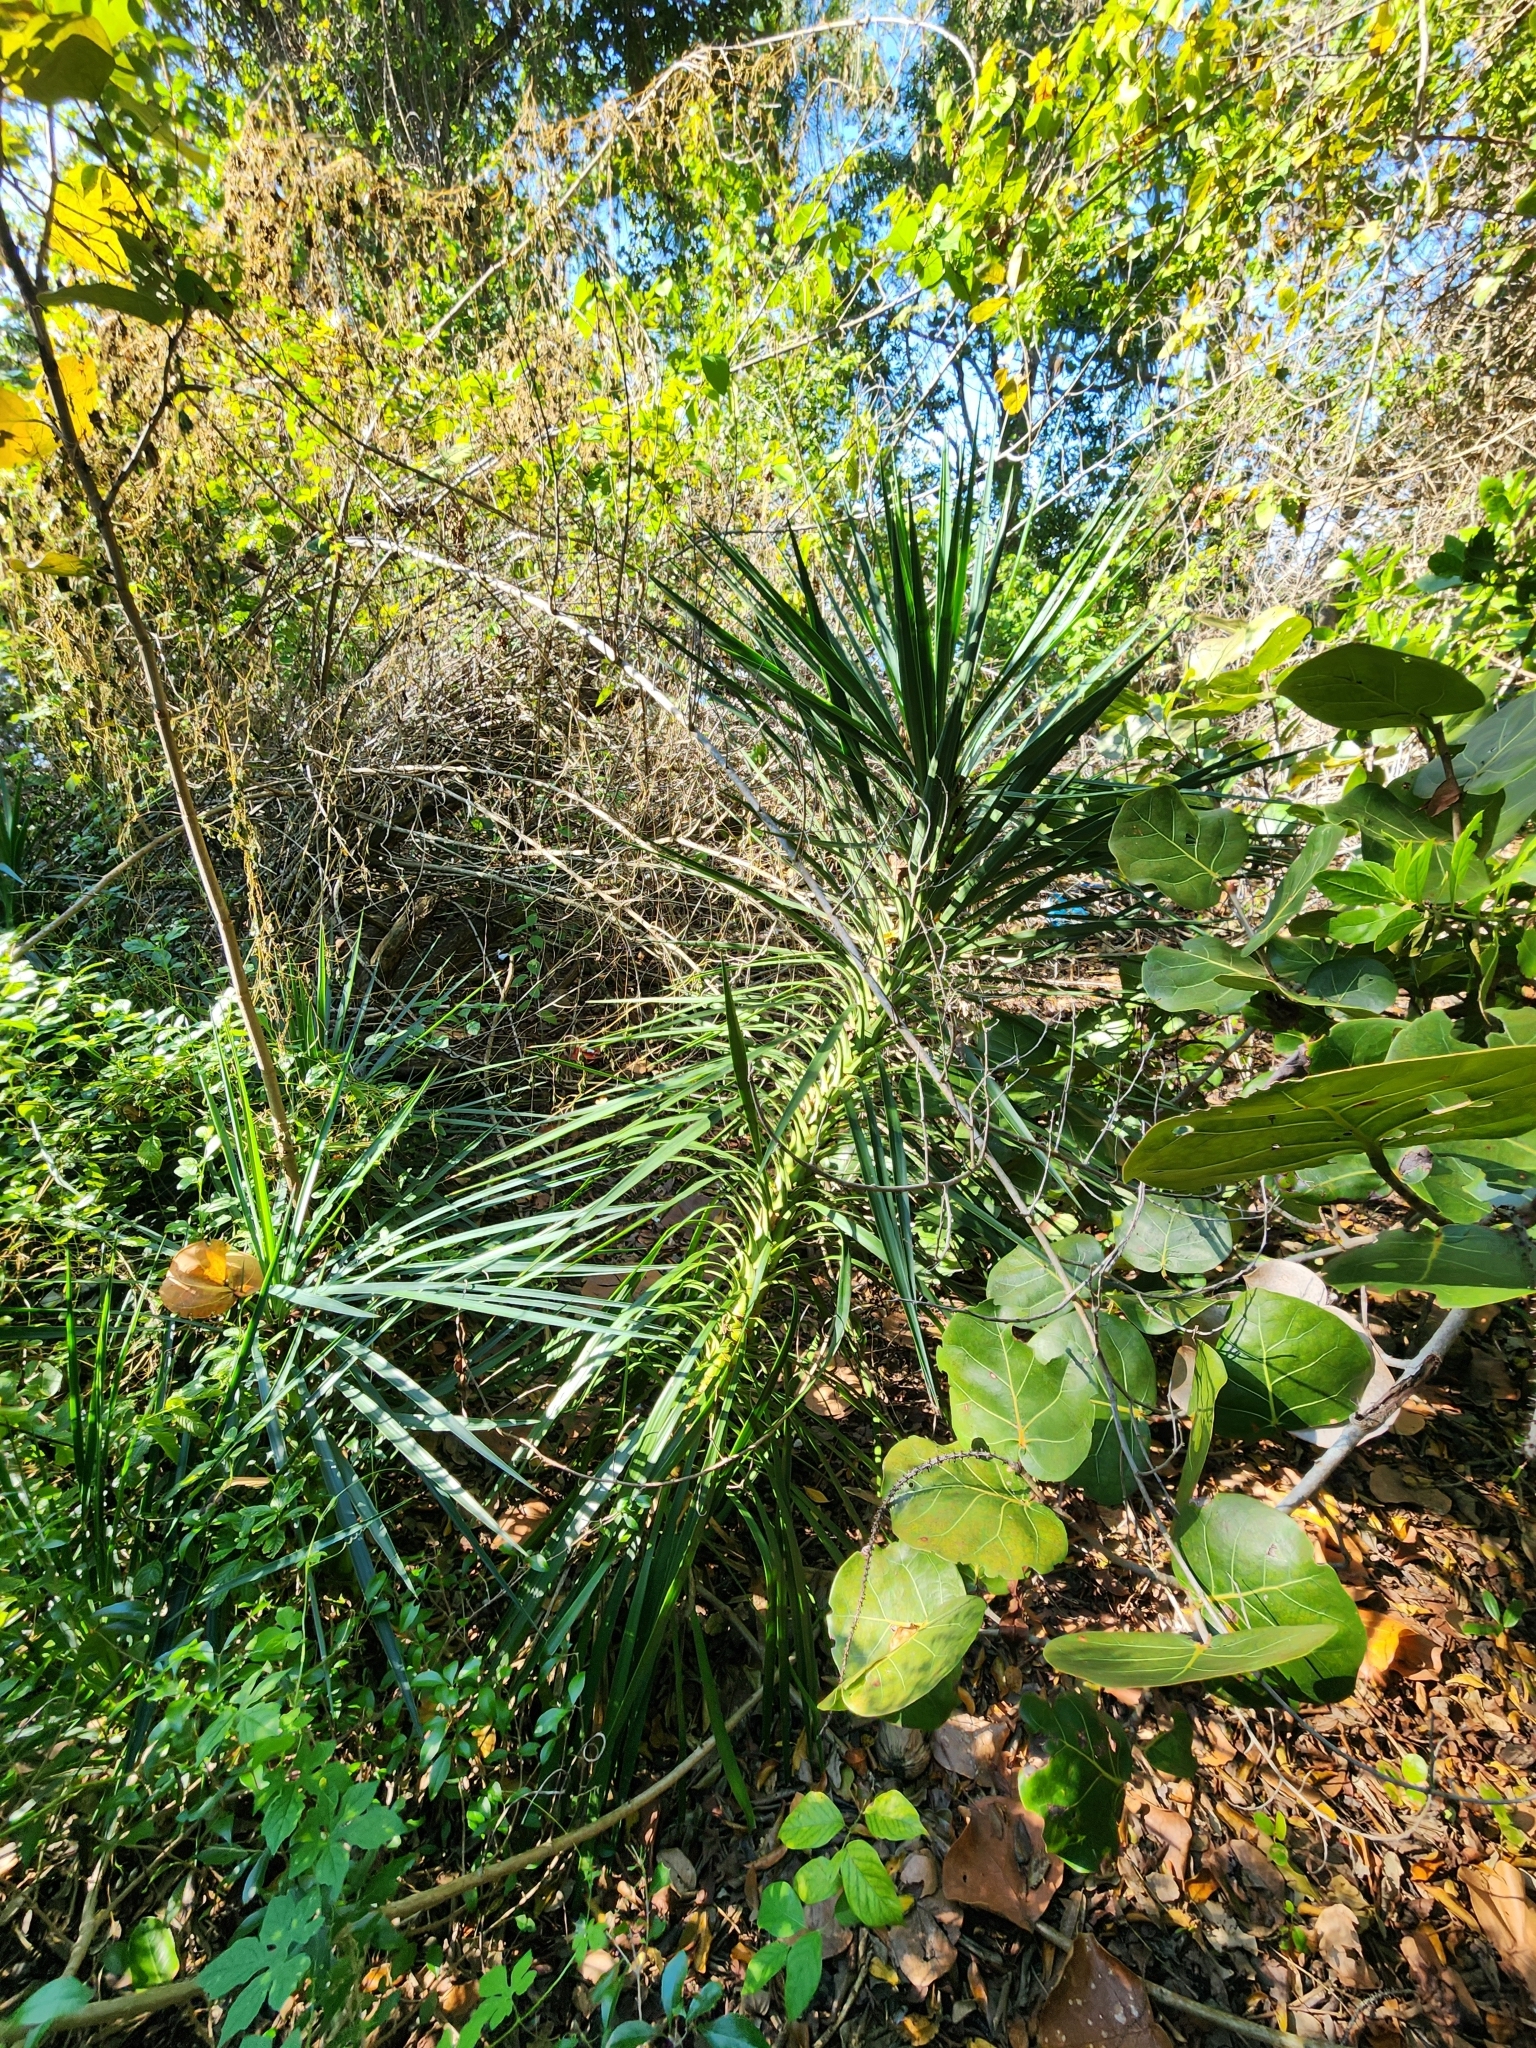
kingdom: Plantae
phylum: Tracheophyta
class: Liliopsida
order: Asparagales
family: Asparagaceae
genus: Yucca
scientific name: Yucca aloifolia
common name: Aloe yucca
